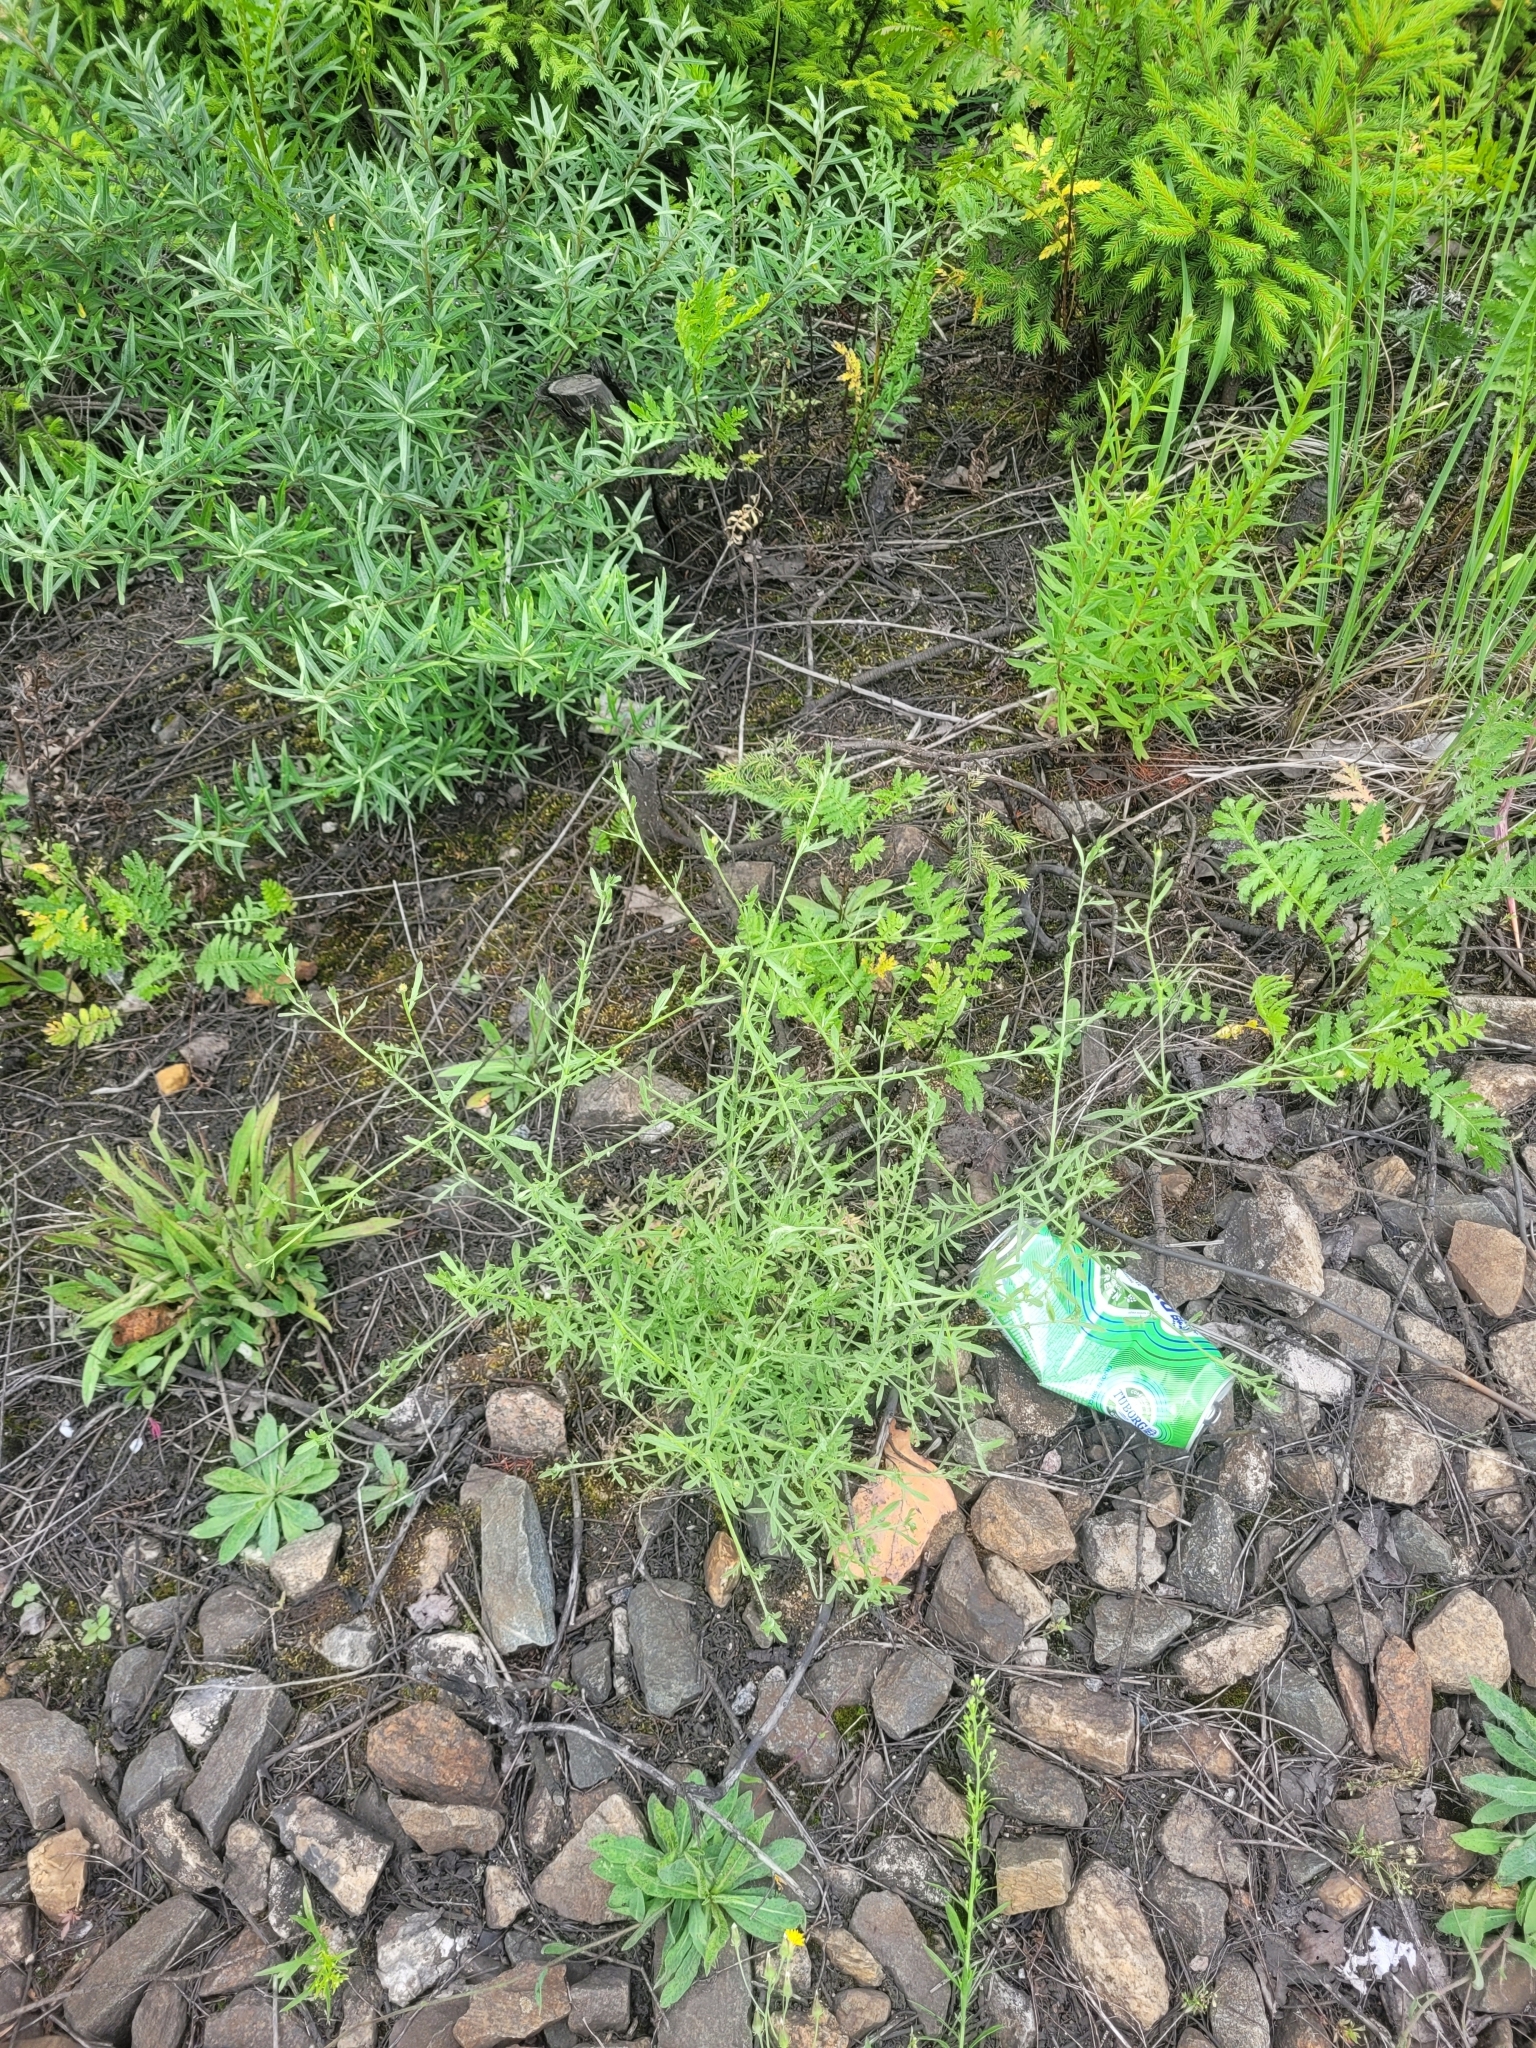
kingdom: Plantae
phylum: Tracheophyta
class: Magnoliopsida
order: Asterales
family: Asteraceae
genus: Centaurea
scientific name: Centaurea diffusa
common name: Diffuse knapweed
